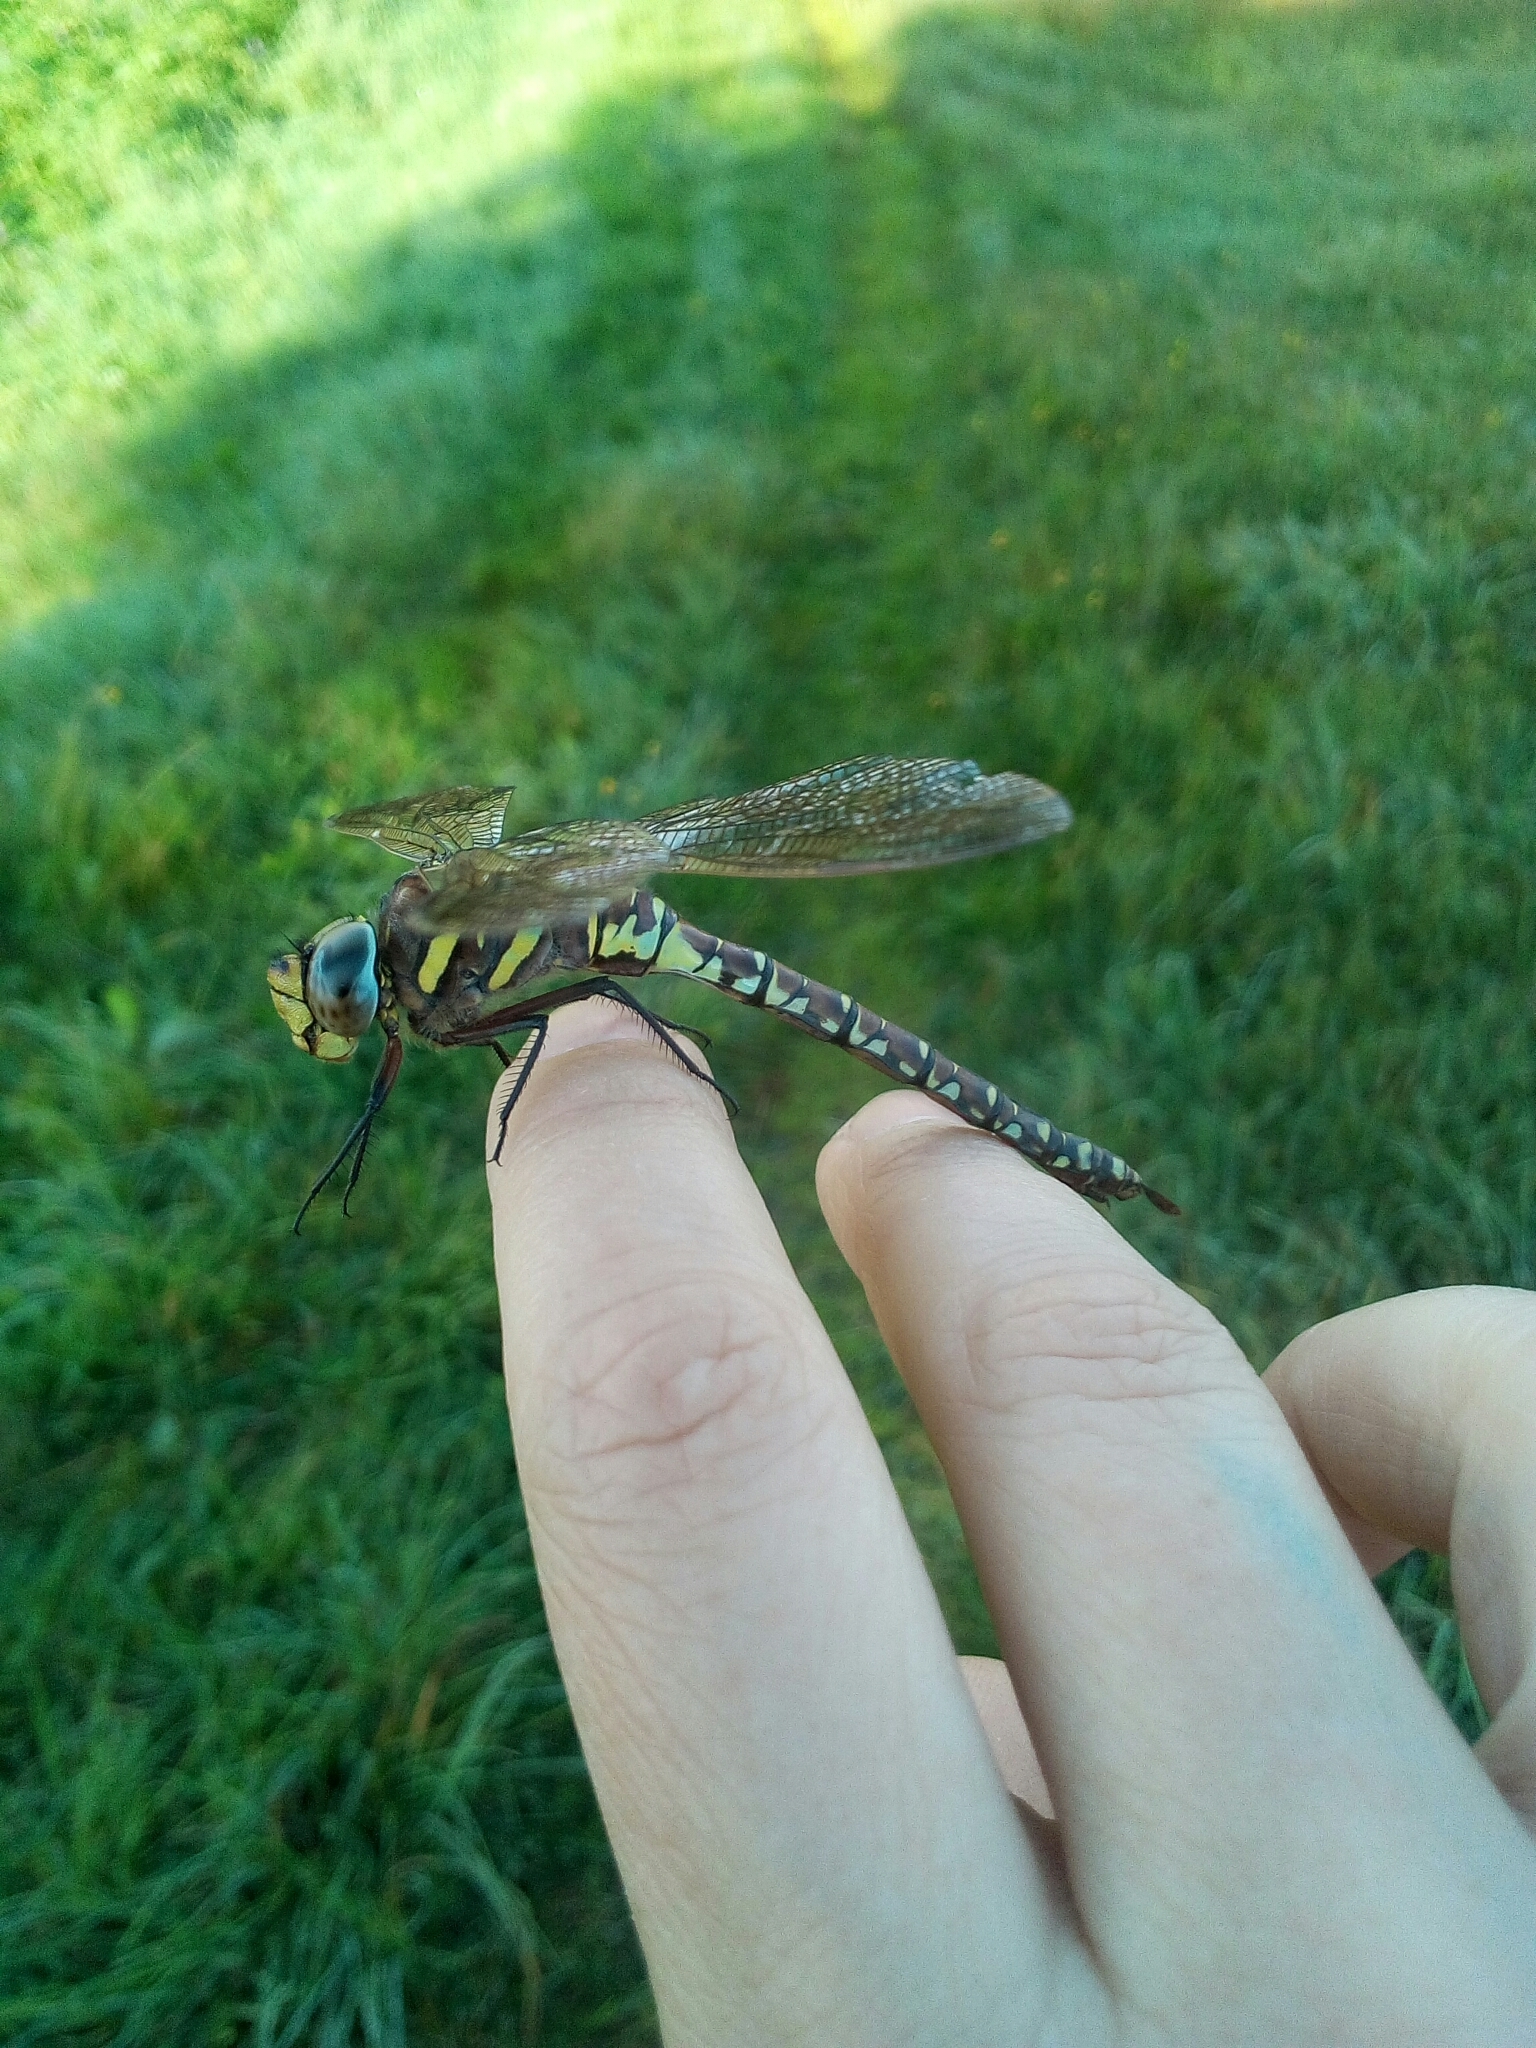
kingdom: Animalia
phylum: Arthropoda
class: Insecta
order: Odonata
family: Aeshnidae
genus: Aeshna
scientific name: Aeshna juncea
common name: Moorland hawker
